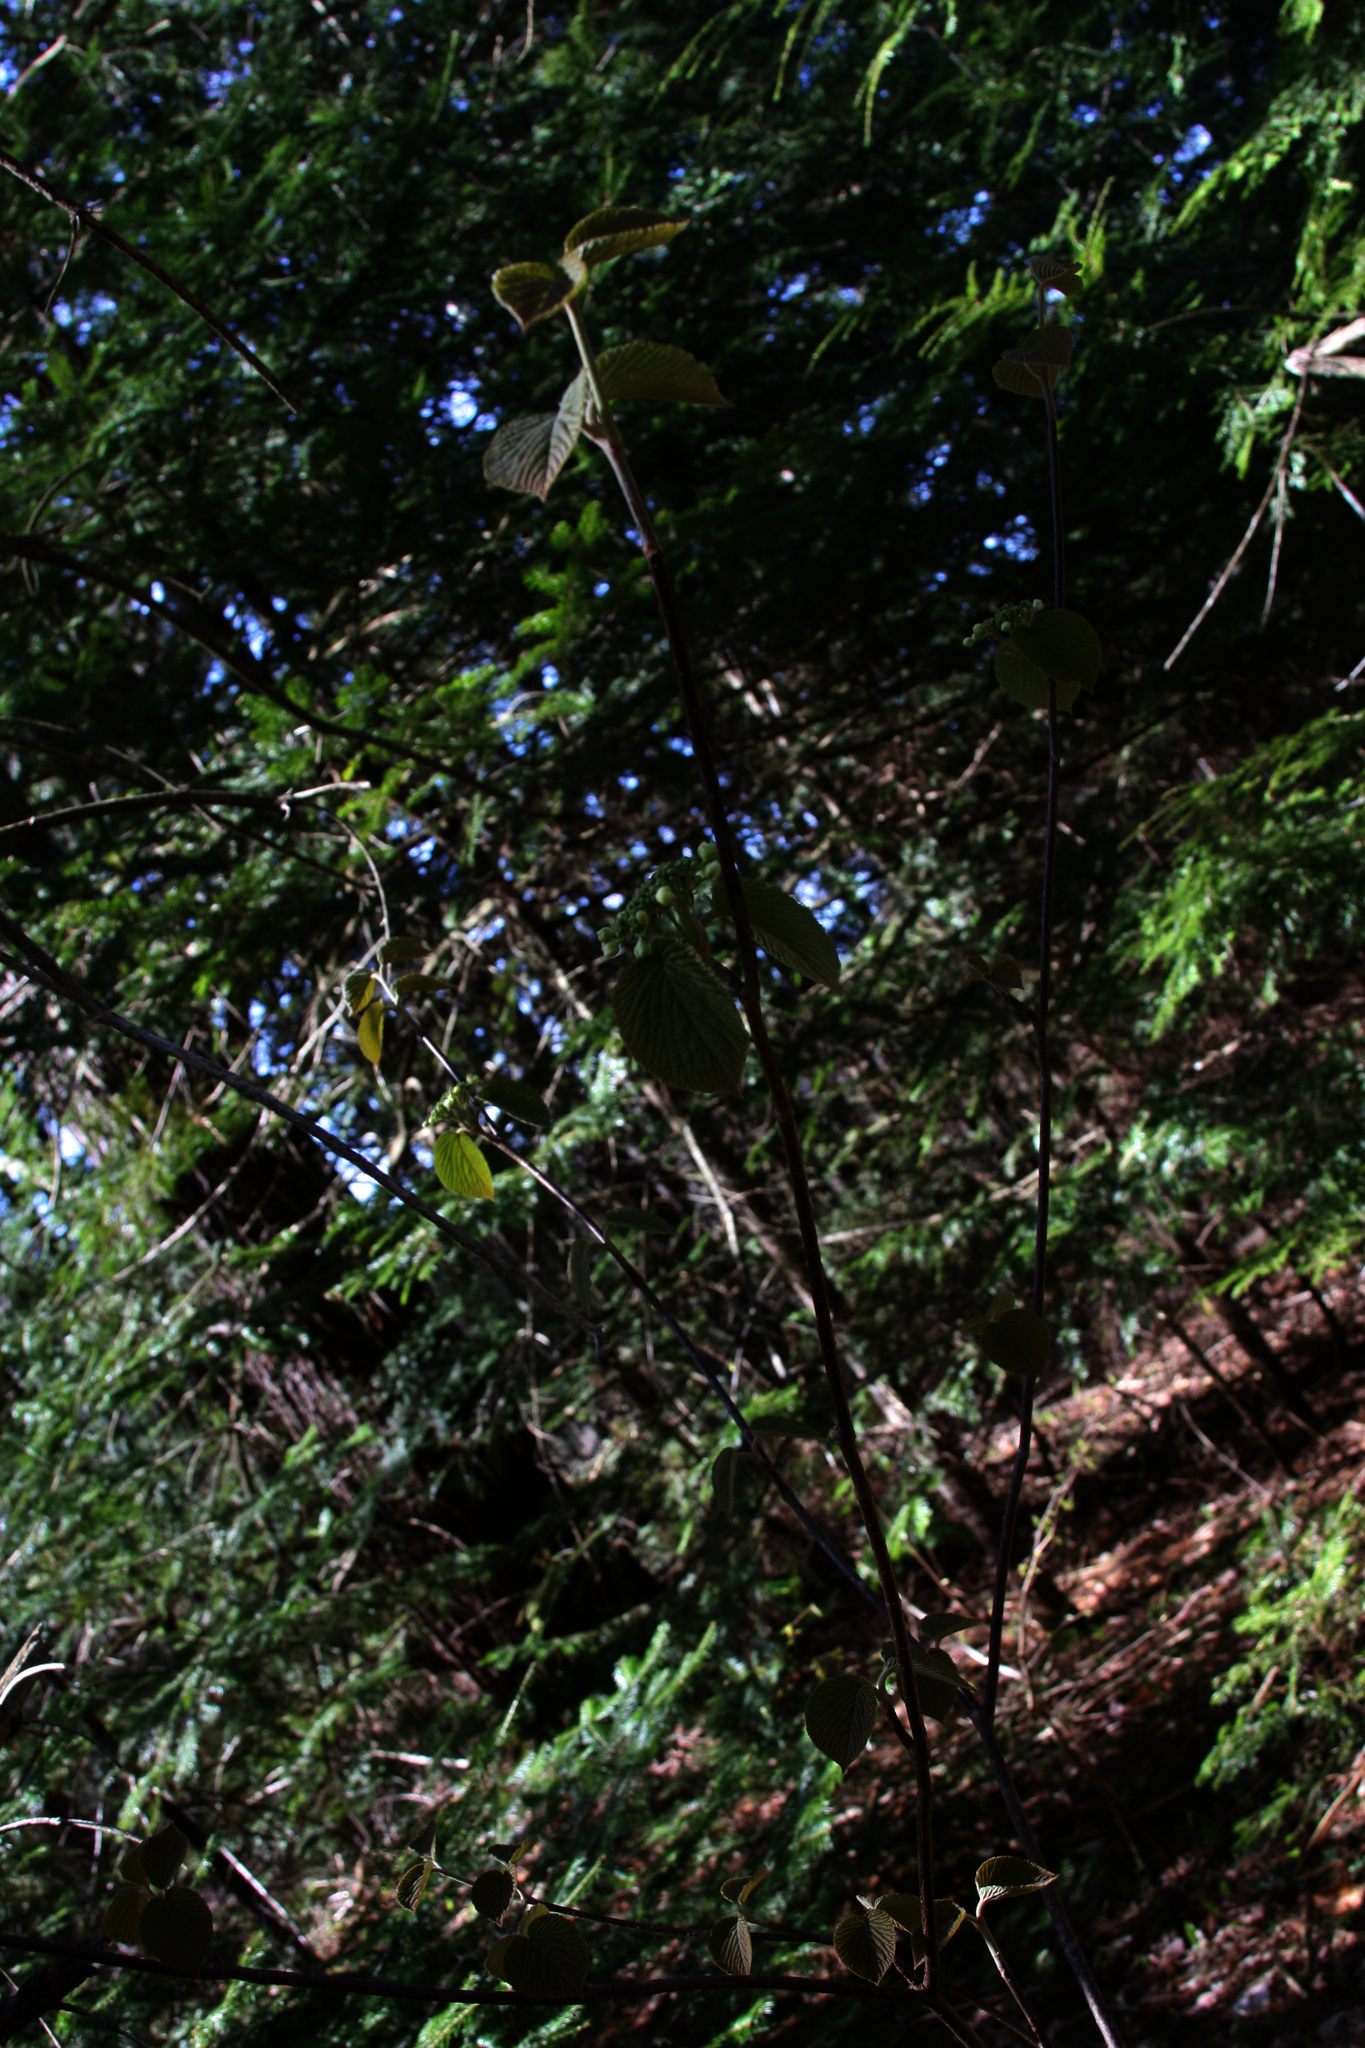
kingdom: Plantae
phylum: Tracheophyta
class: Magnoliopsida
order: Dipsacales
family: Viburnaceae
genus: Viburnum
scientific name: Viburnum lantanoides
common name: Hobblebush
